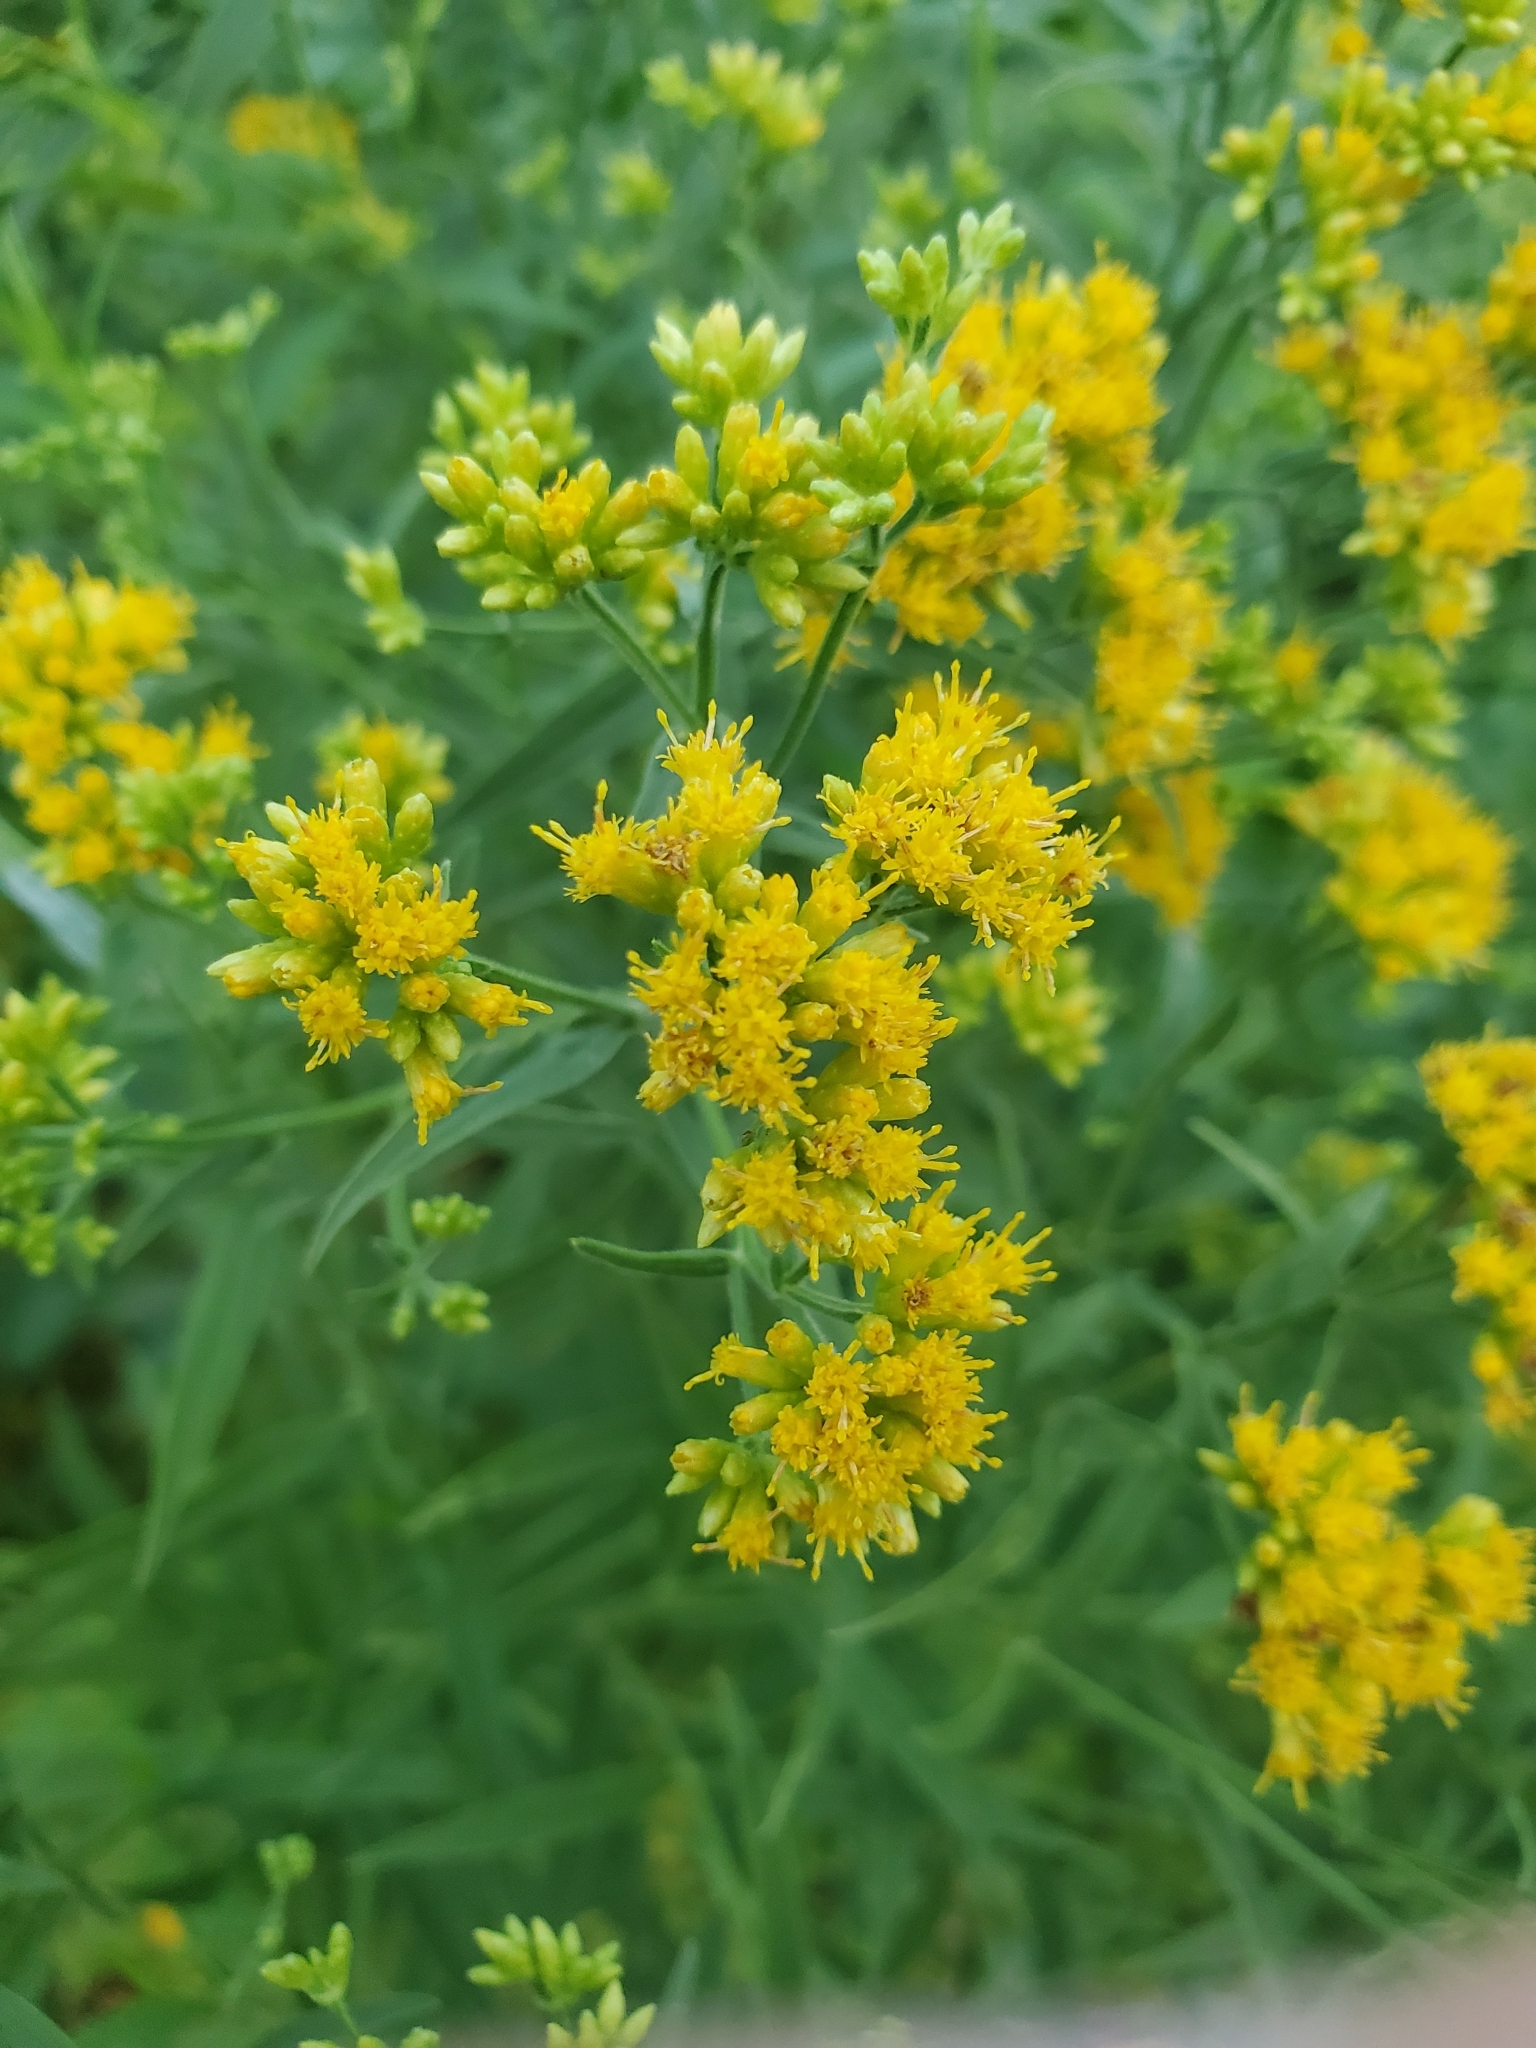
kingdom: Plantae
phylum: Tracheophyta
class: Magnoliopsida
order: Asterales
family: Asteraceae
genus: Euthamia
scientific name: Euthamia graminifolia
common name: Common goldentop
